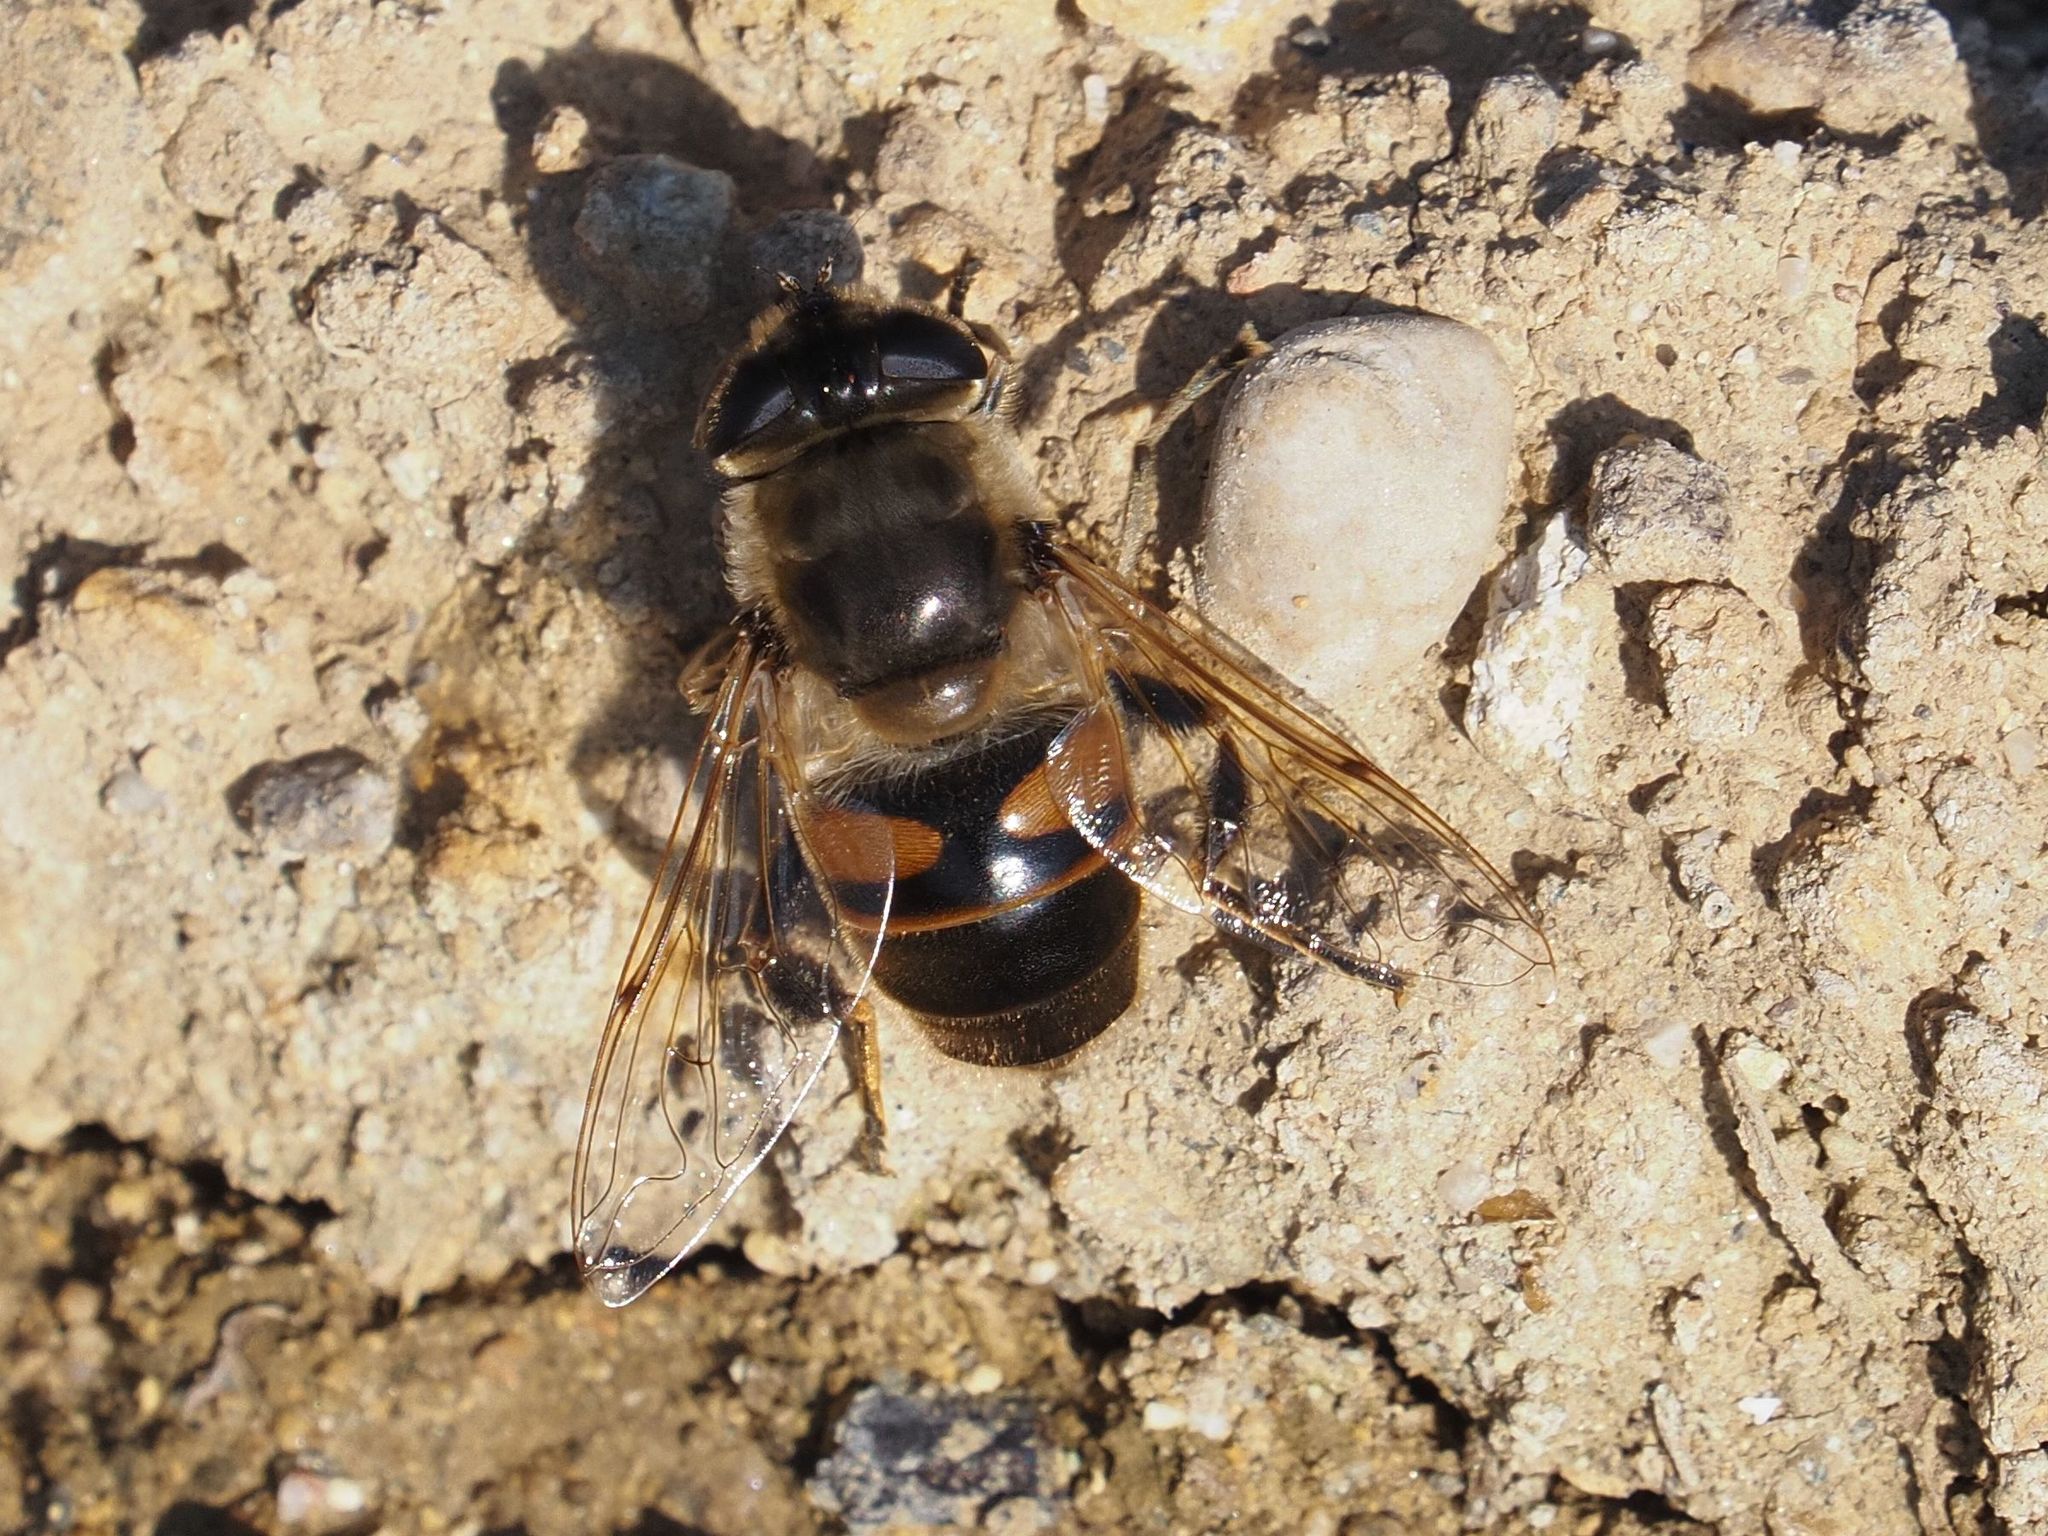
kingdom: Animalia
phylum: Arthropoda
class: Insecta
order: Diptera
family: Syrphidae
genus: Eristalis
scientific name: Eristalis tenax
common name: Drone fly
